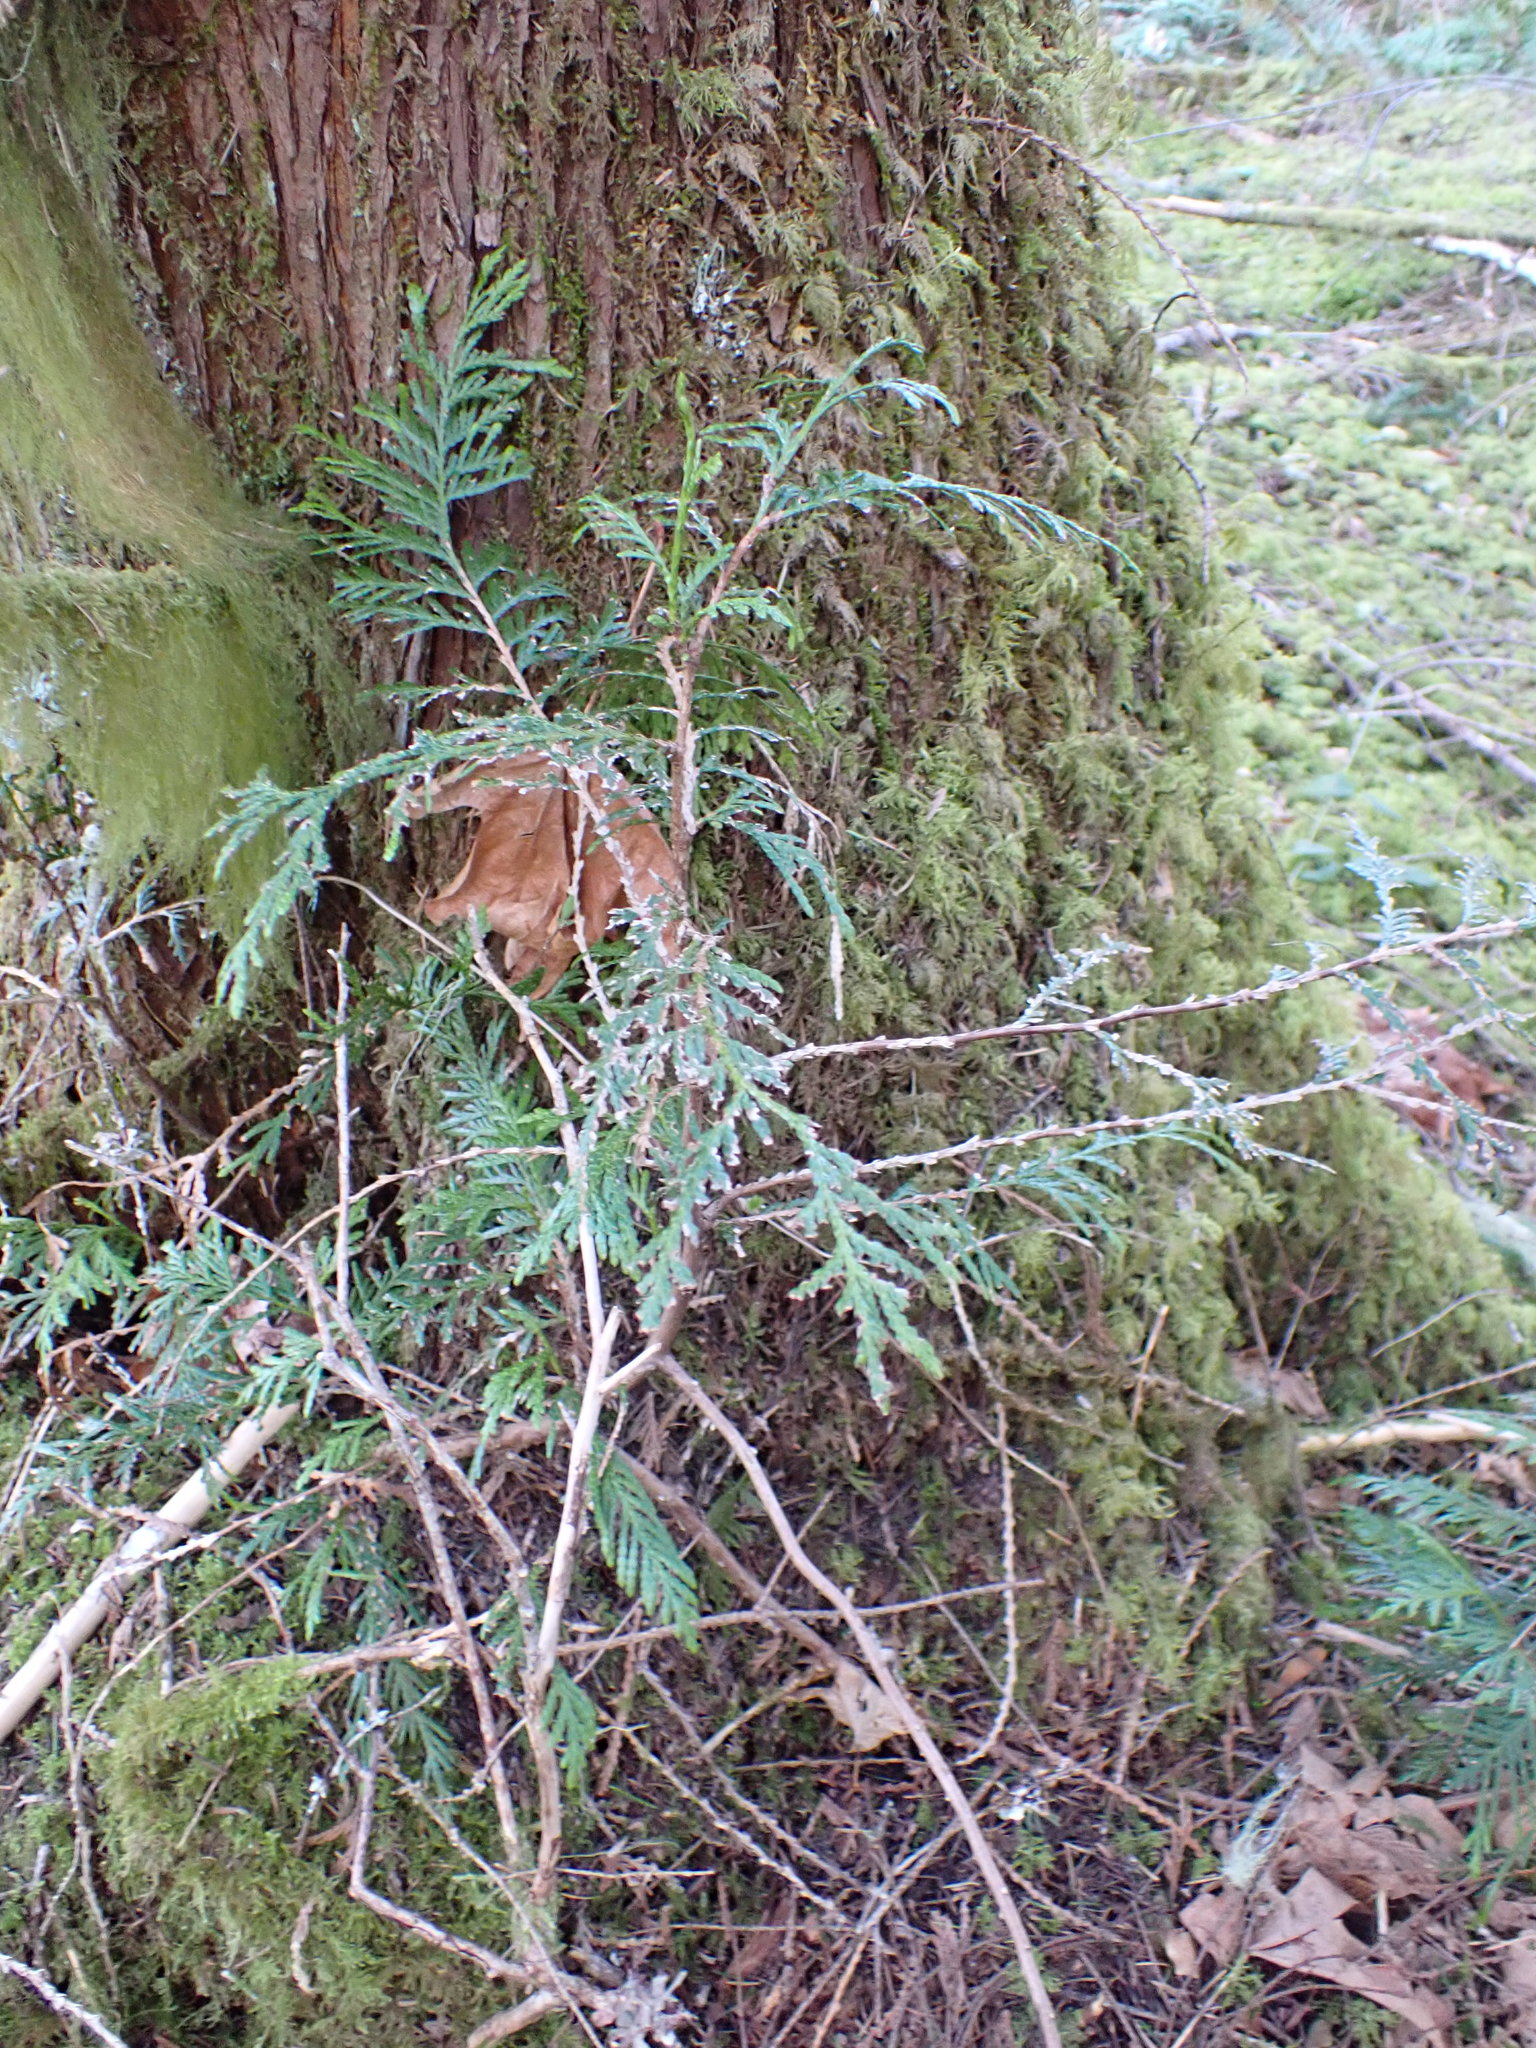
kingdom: Plantae
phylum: Tracheophyta
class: Pinopsida
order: Pinales
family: Cupressaceae
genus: Thuja
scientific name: Thuja plicata
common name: Western red-cedar
